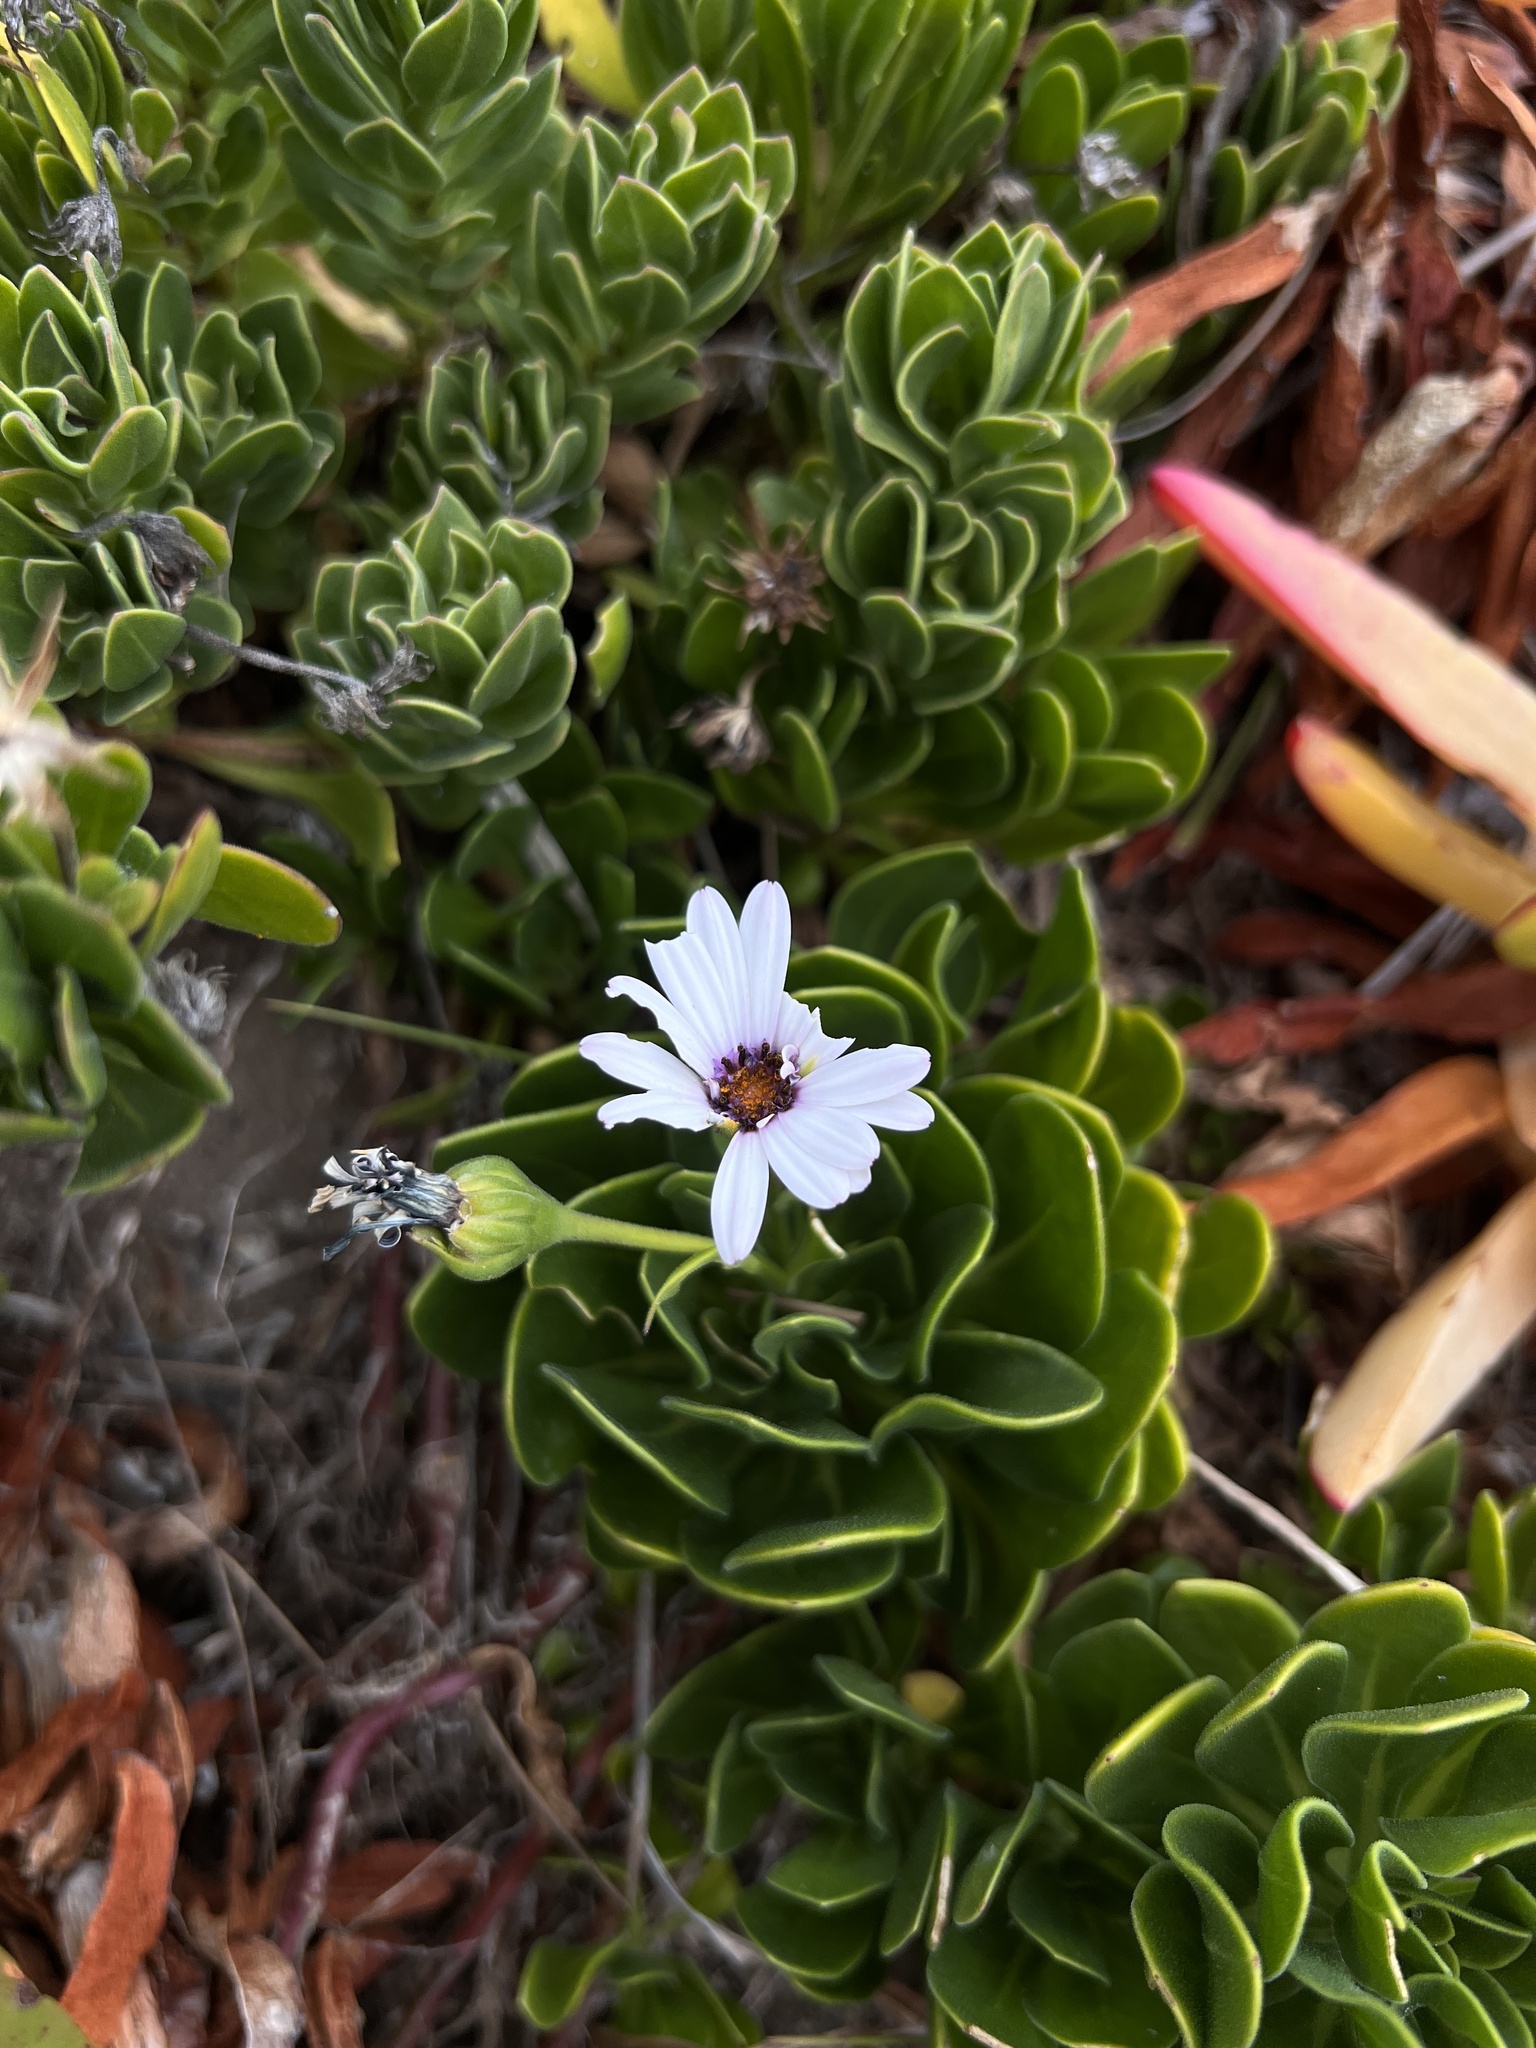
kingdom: Plantae
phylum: Tracheophyta
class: Magnoliopsida
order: Asterales
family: Asteraceae
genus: Dimorphotheca
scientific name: Dimorphotheca fruticosa
